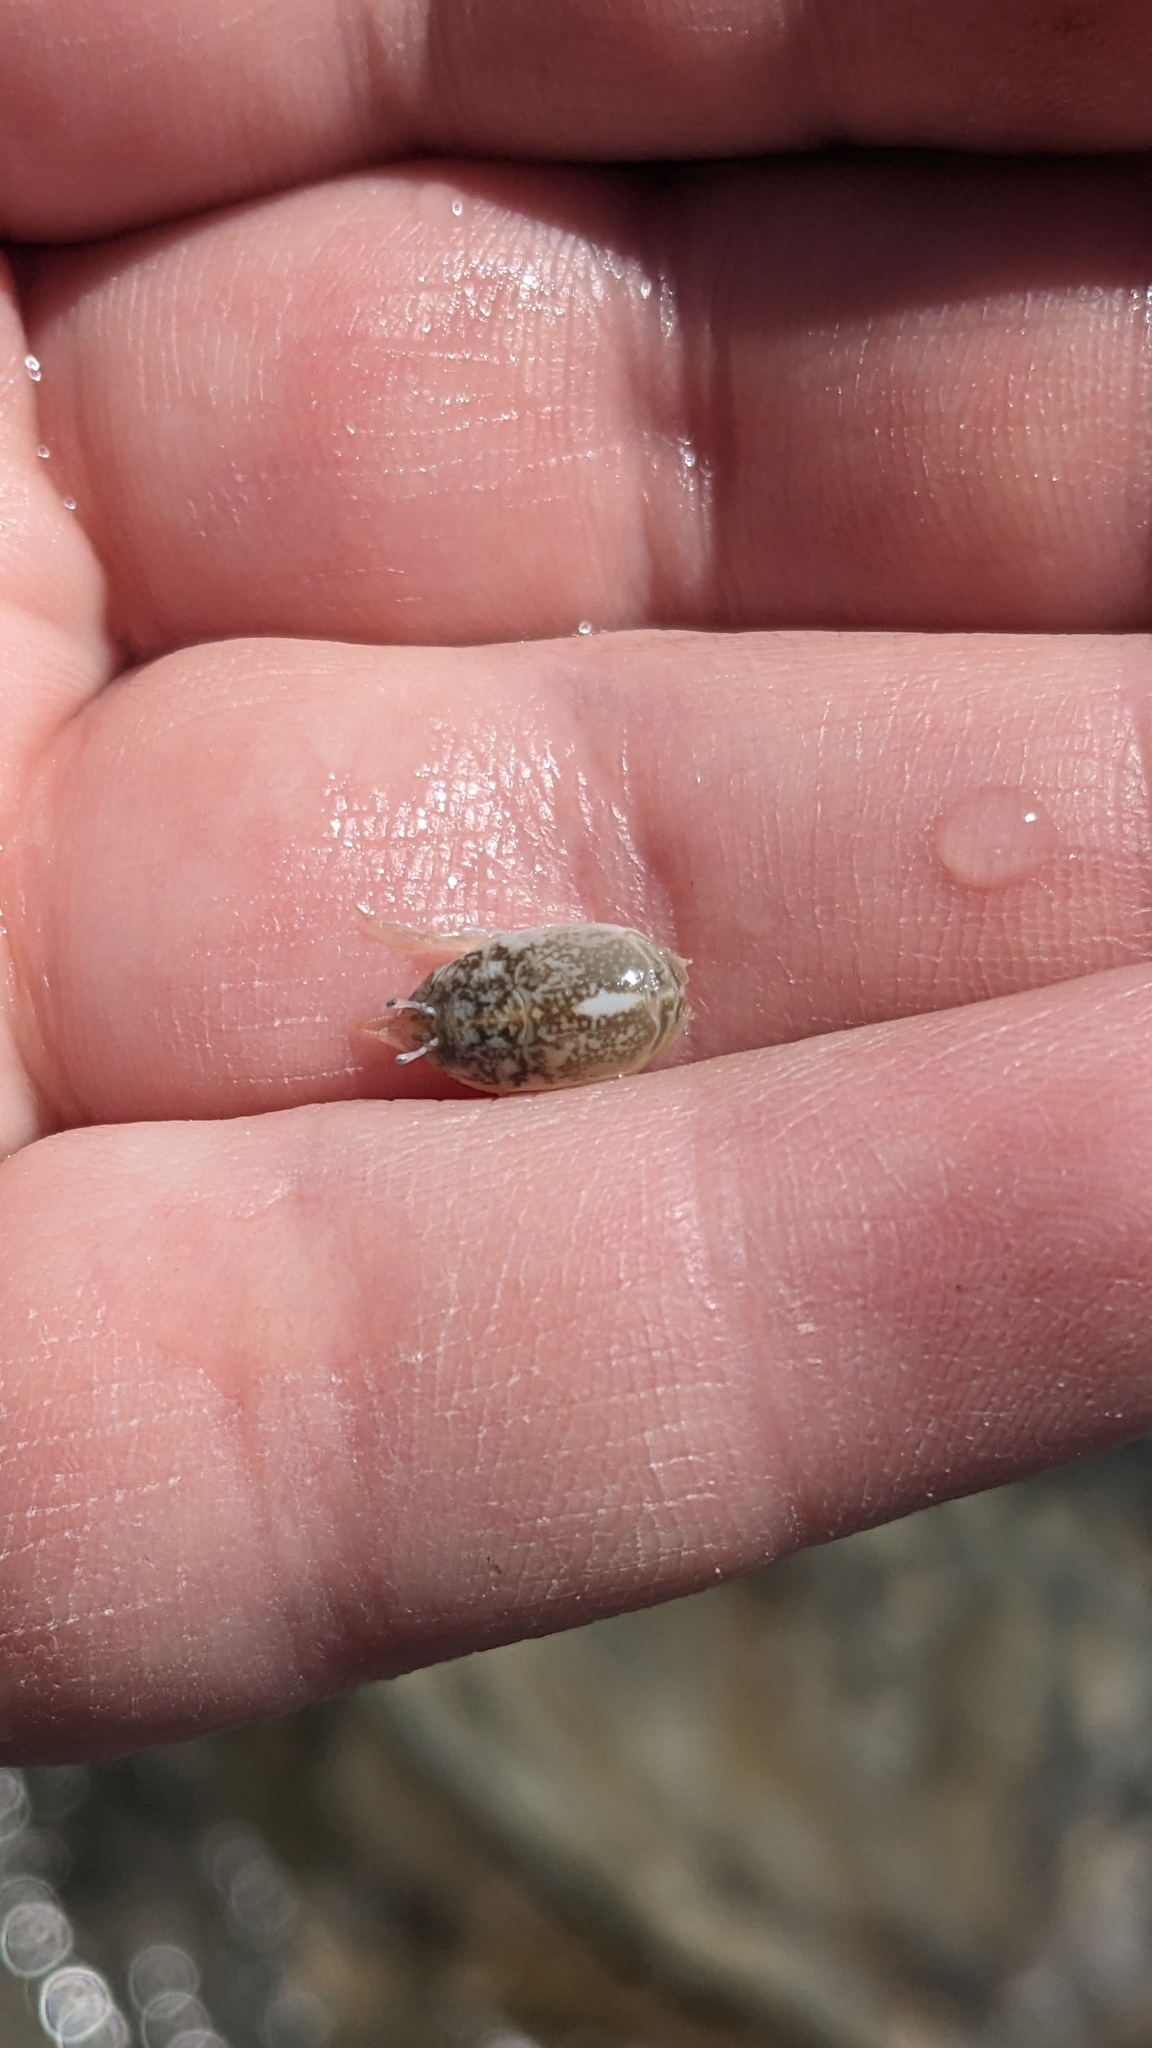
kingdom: Animalia
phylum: Arthropoda
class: Malacostraca
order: Decapoda
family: Hippidae
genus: Emerita
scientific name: Emerita analoga
